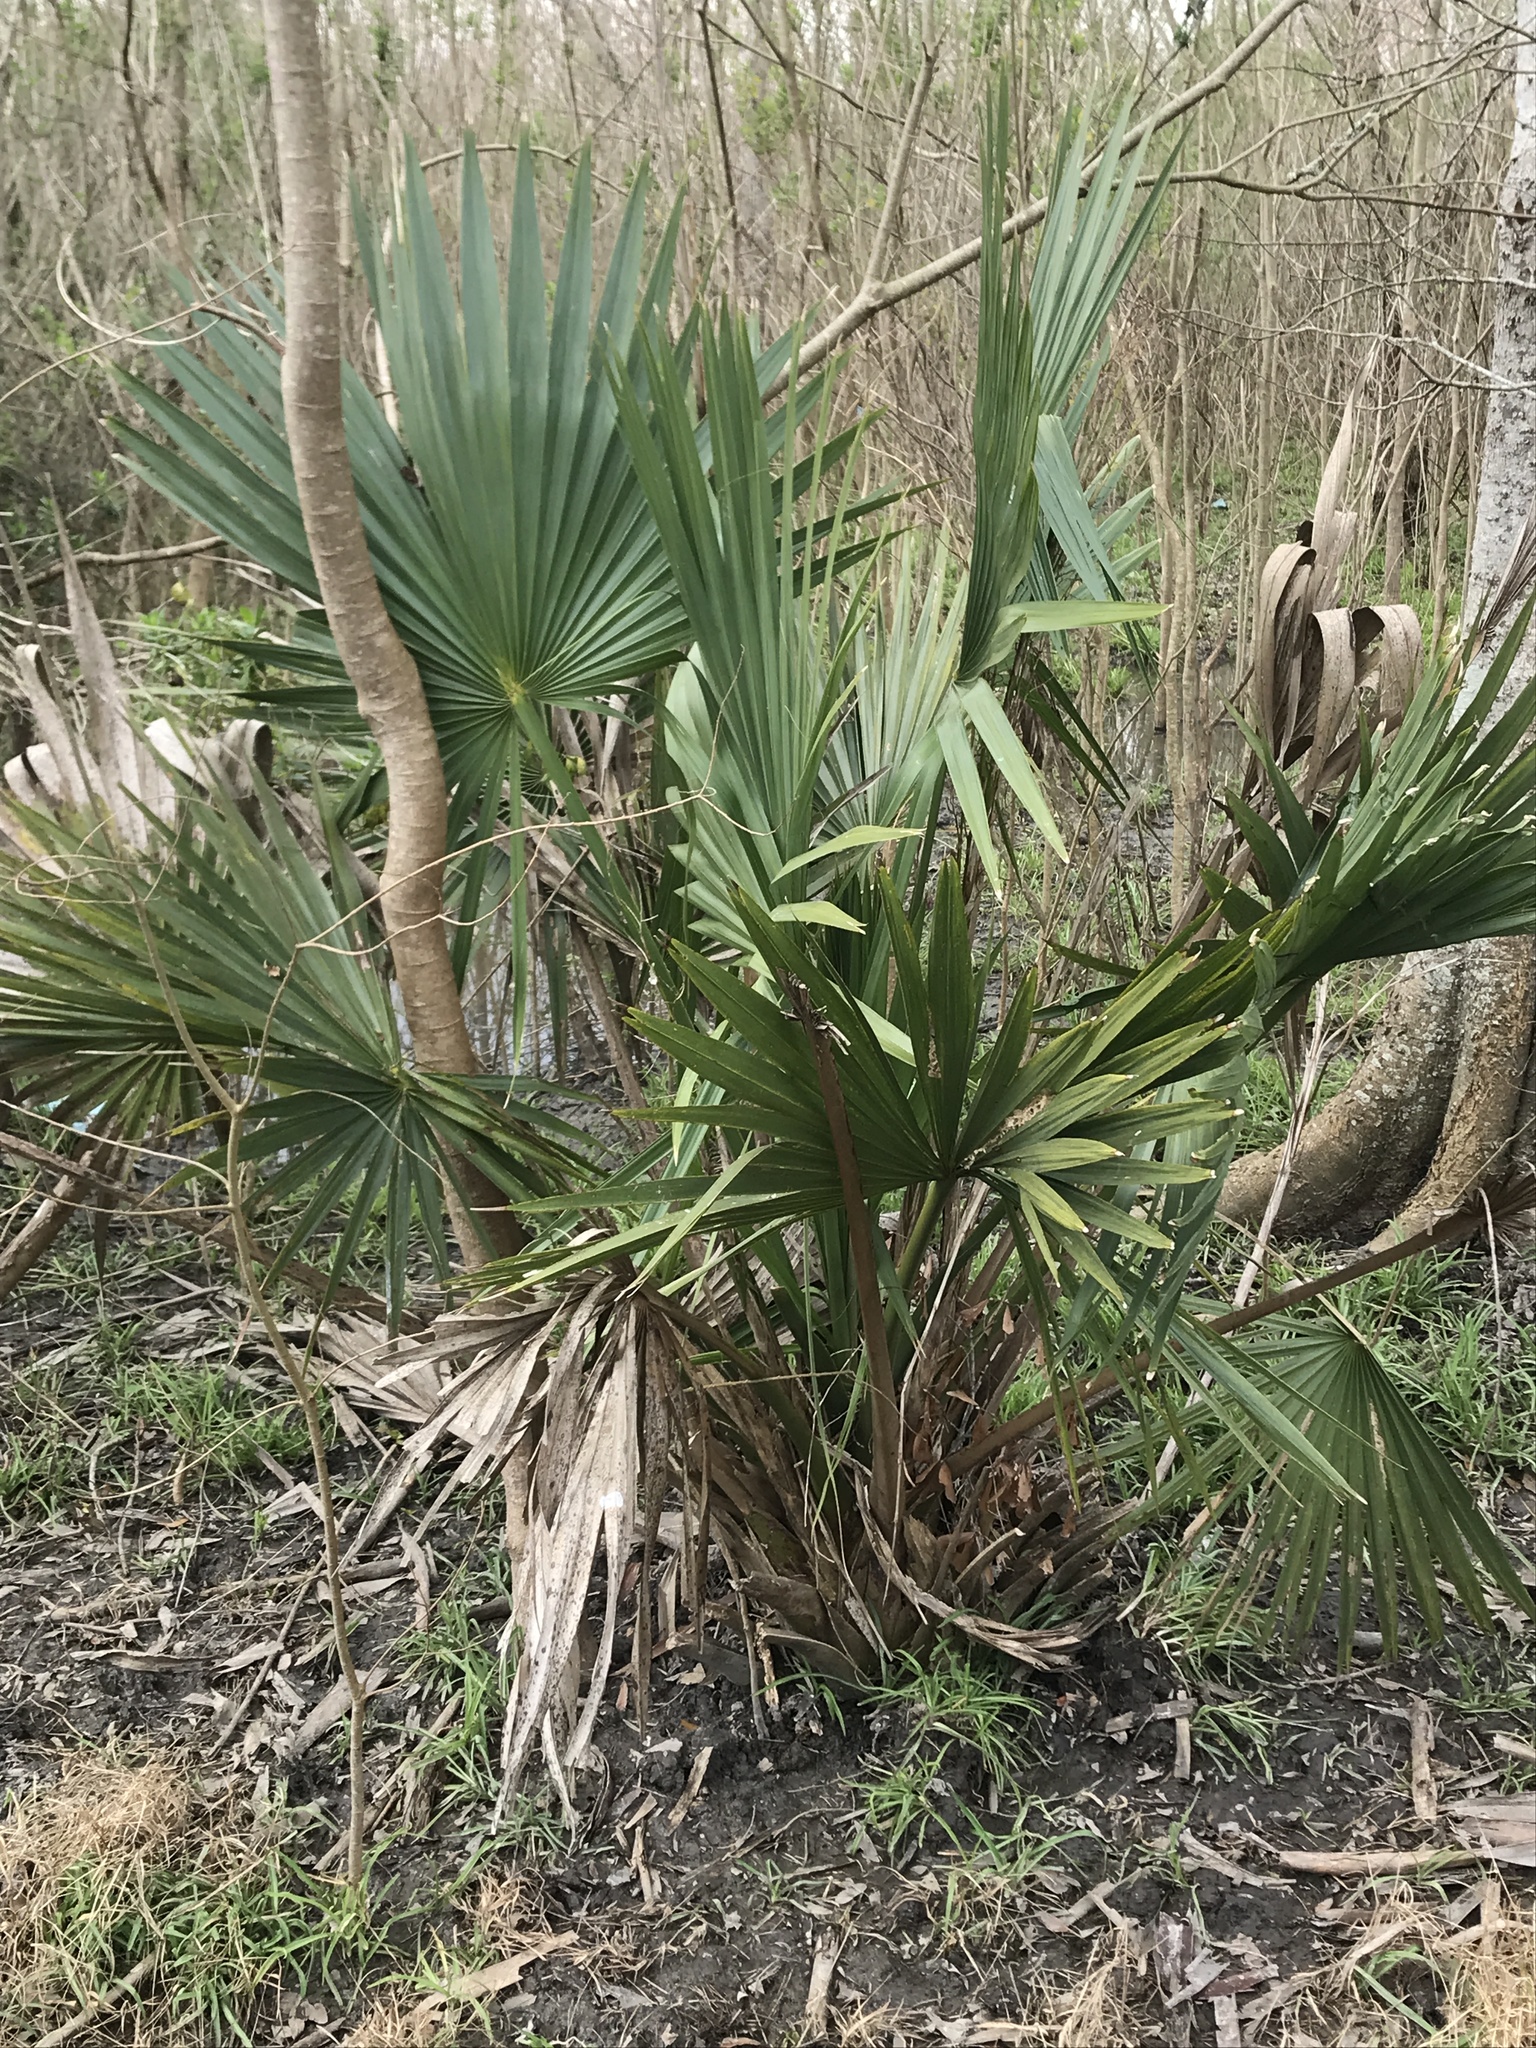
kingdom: Plantae
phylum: Tracheophyta
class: Liliopsida
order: Arecales
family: Arecaceae
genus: Sabal
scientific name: Sabal minor
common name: Dwarf palmetto
